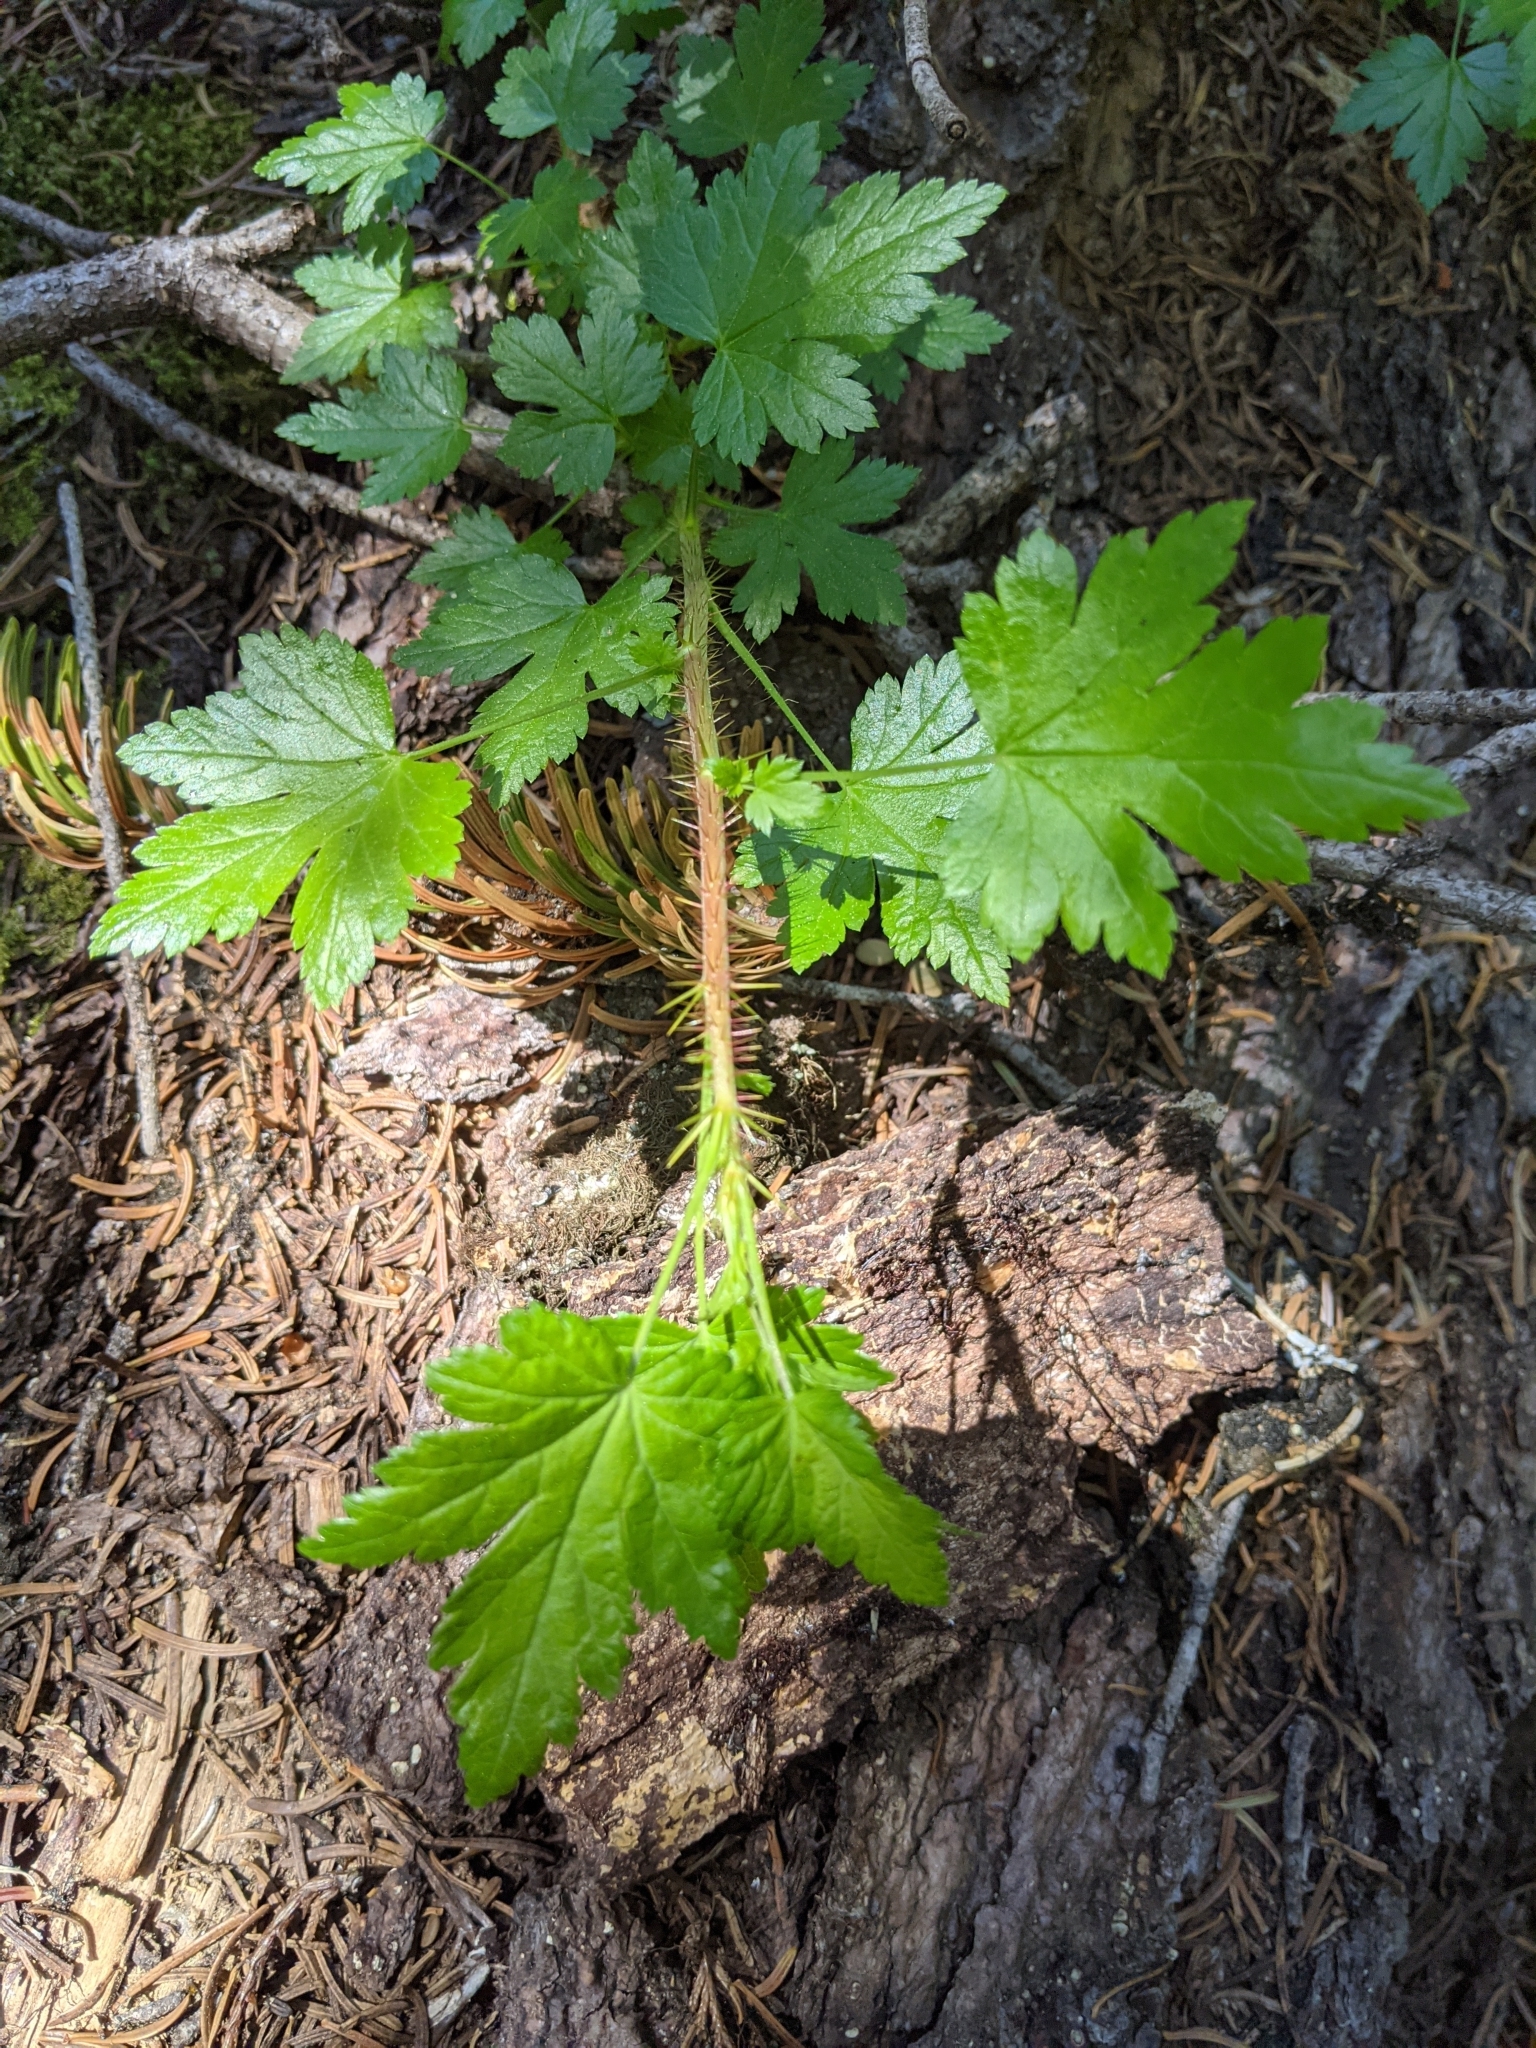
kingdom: Plantae
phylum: Tracheophyta
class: Magnoliopsida
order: Saxifragales
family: Grossulariaceae
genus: Ribes
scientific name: Ribes lacustre
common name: Black gooseberry
